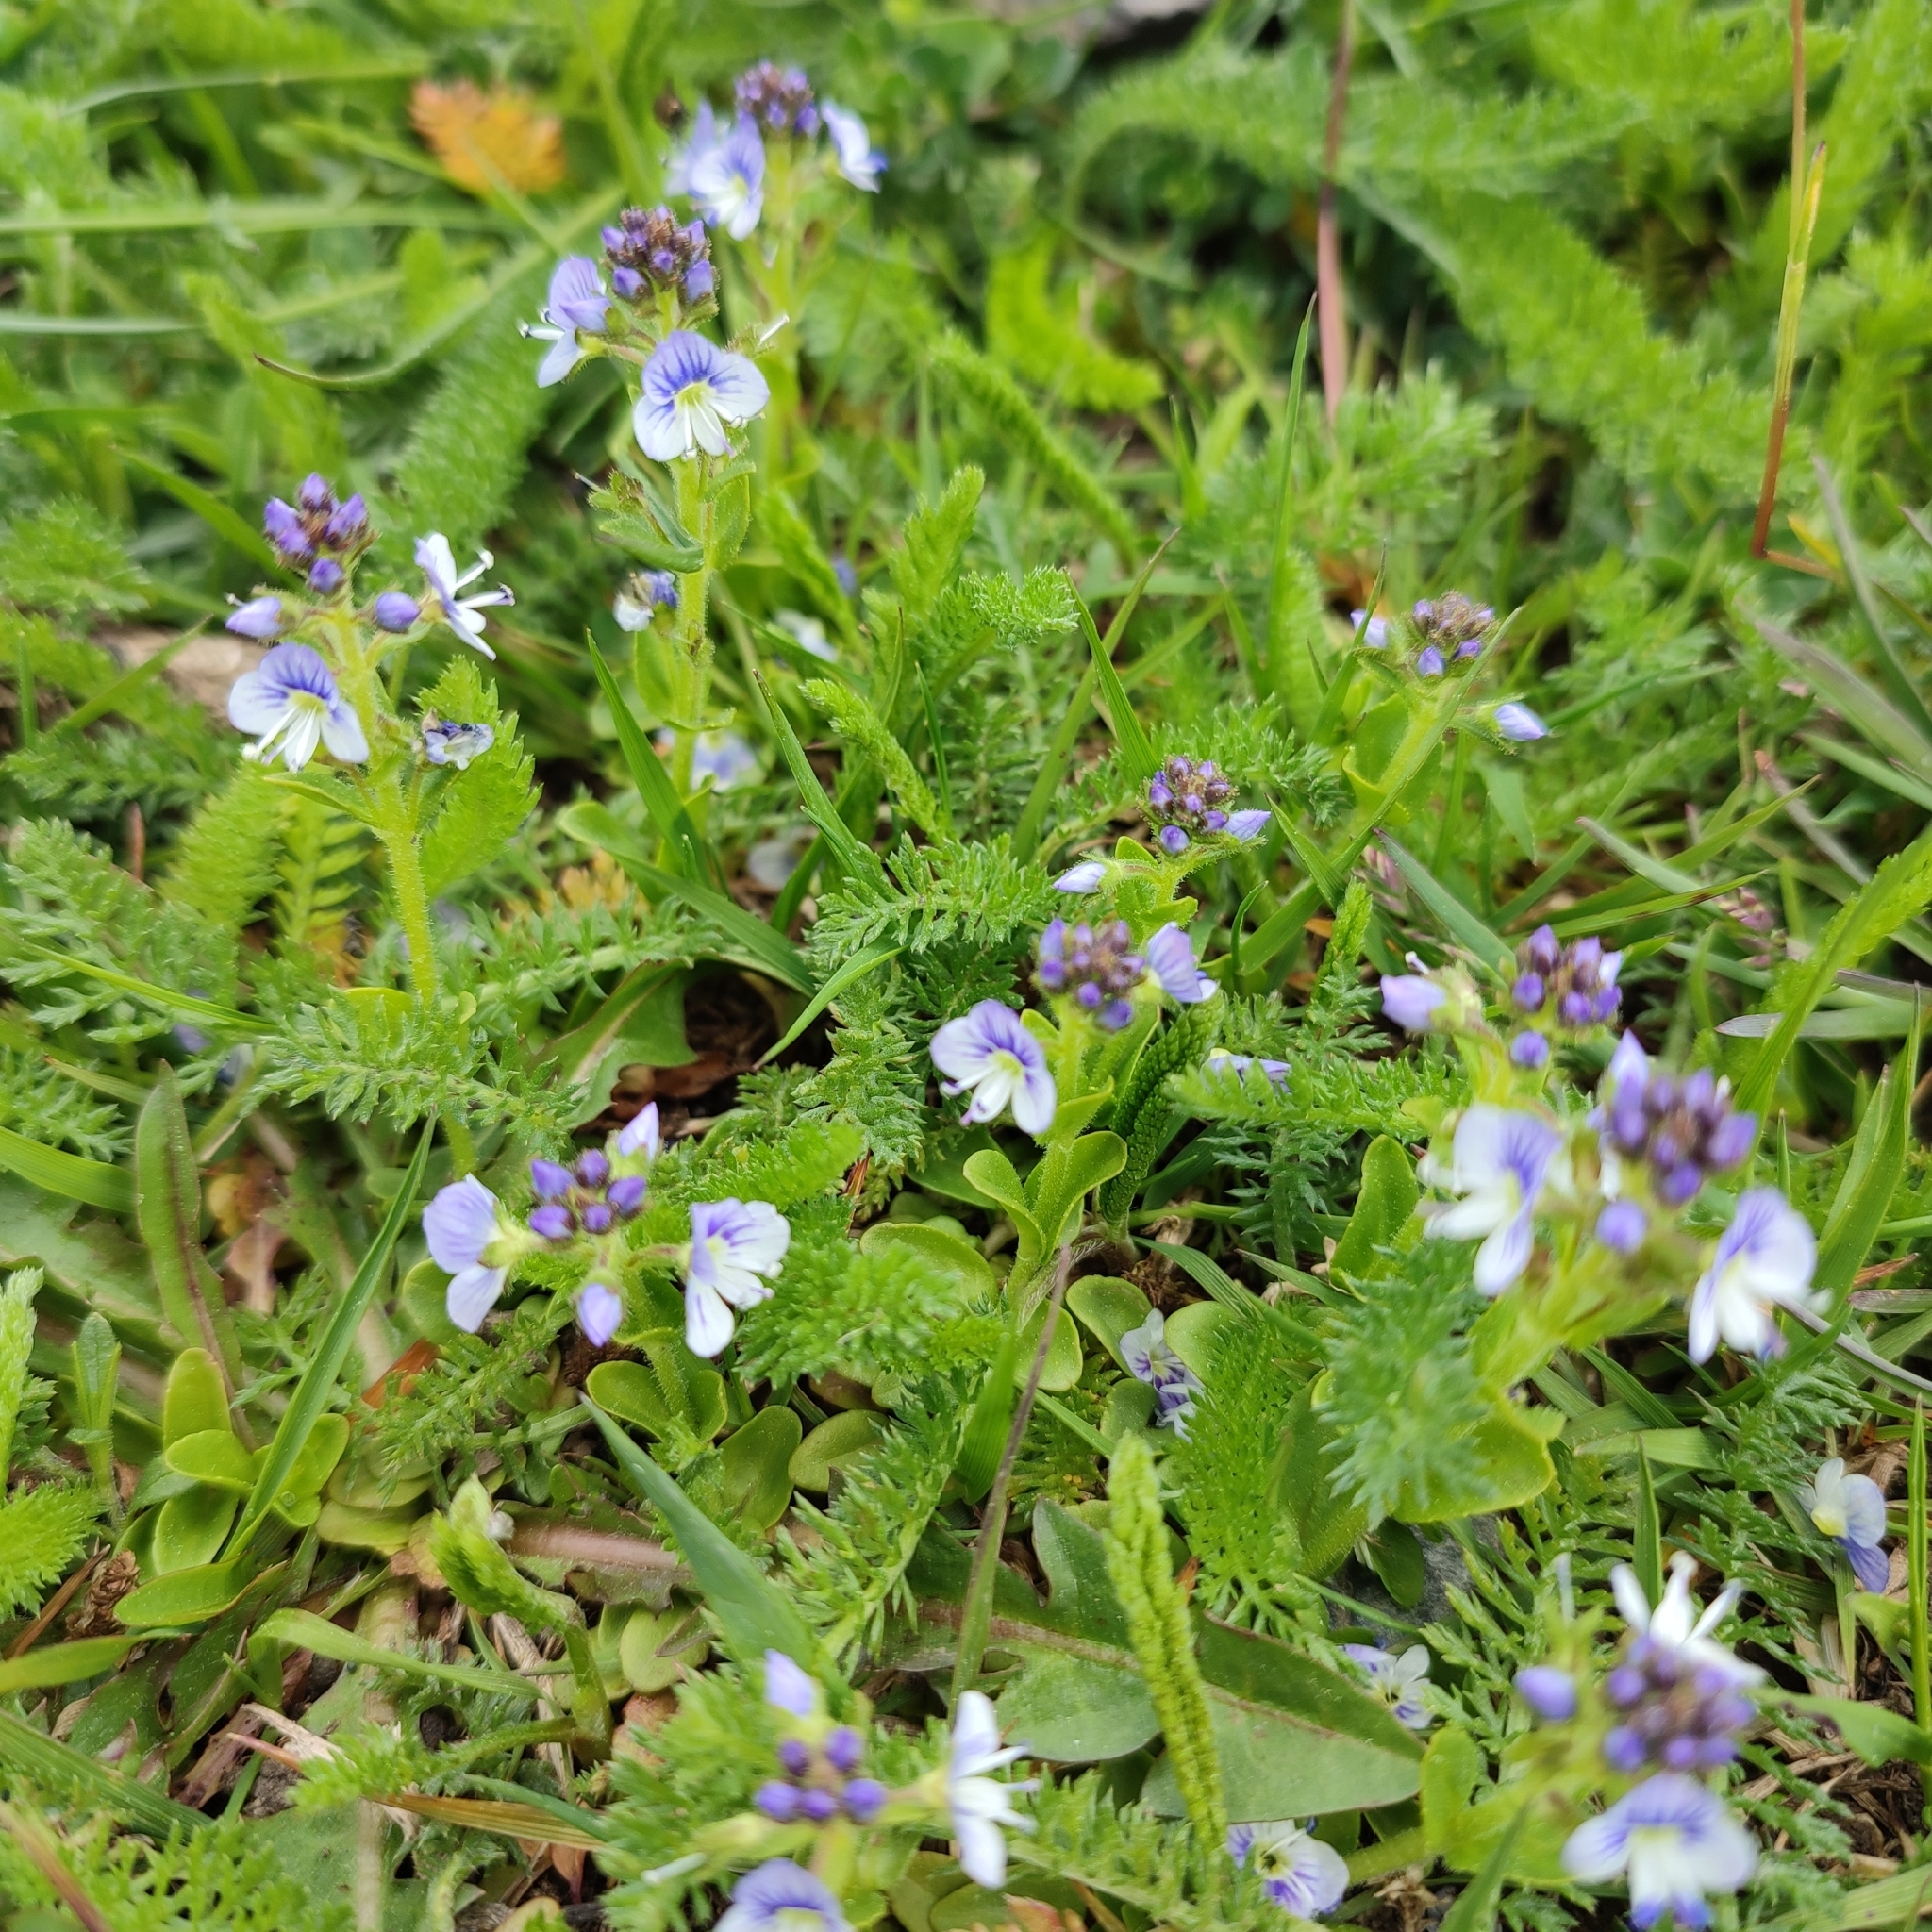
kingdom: Plantae
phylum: Tracheophyta
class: Magnoliopsida
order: Lamiales
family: Plantaginaceae
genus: Veronica
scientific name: Veronica serpyllifolia
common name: Thyme-leaved speedwell
